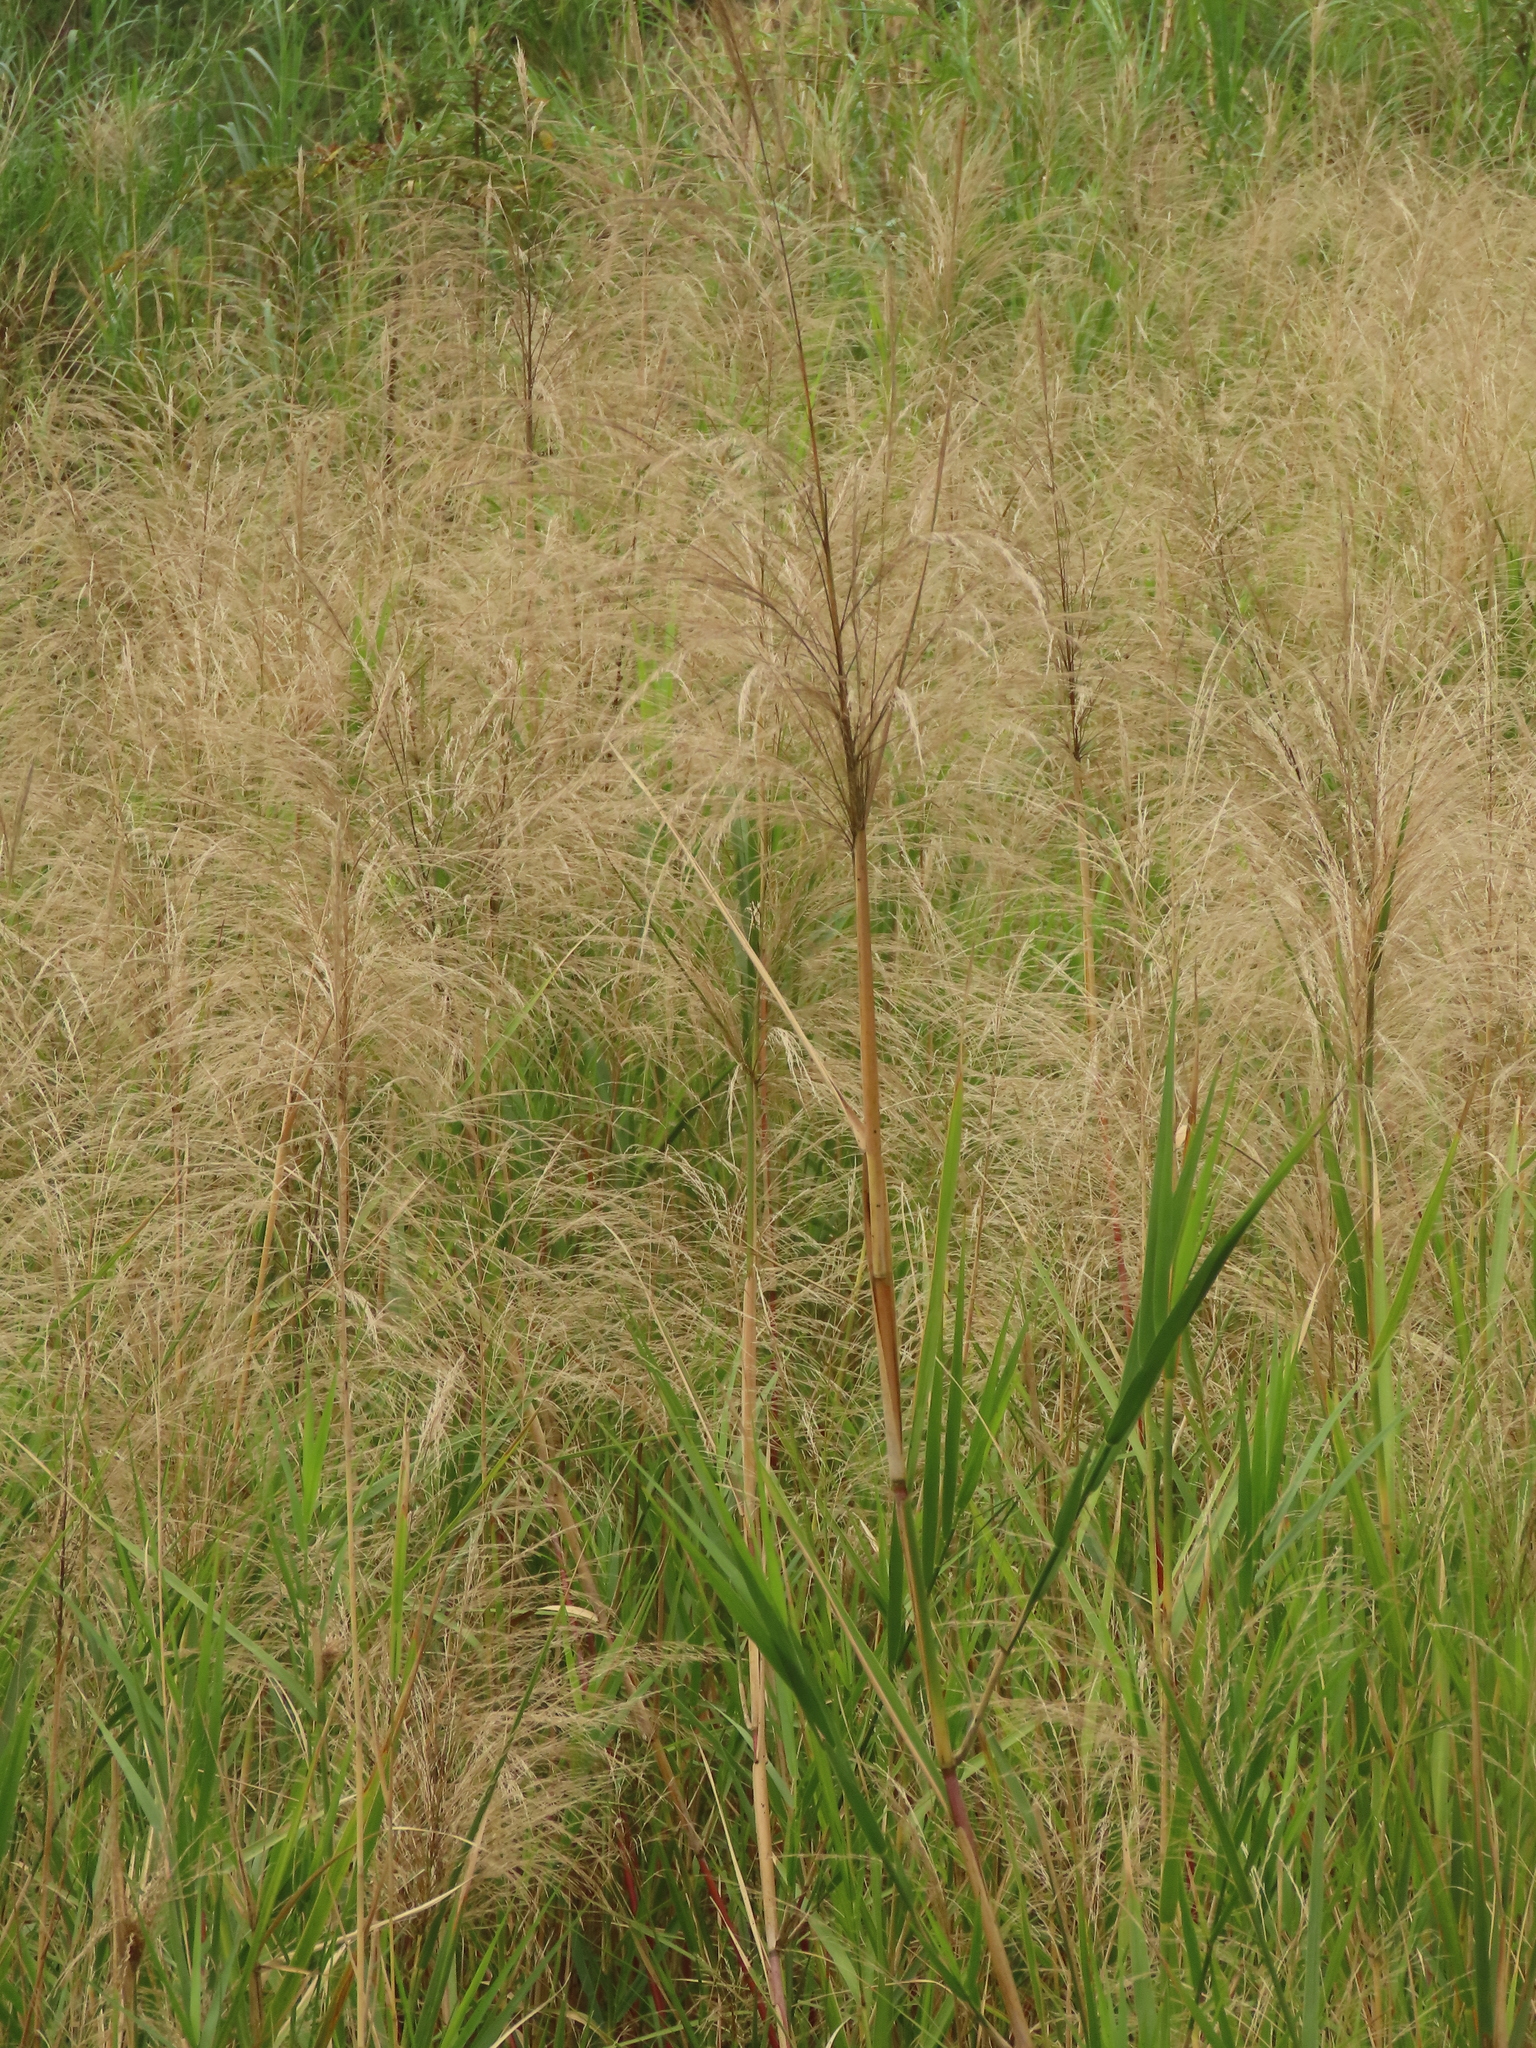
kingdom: Plantae
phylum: Tracheophyta
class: Liliopsida
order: Poales
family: Poaceae
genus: Phragmites
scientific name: Phragmites karka
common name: Tropical reed
